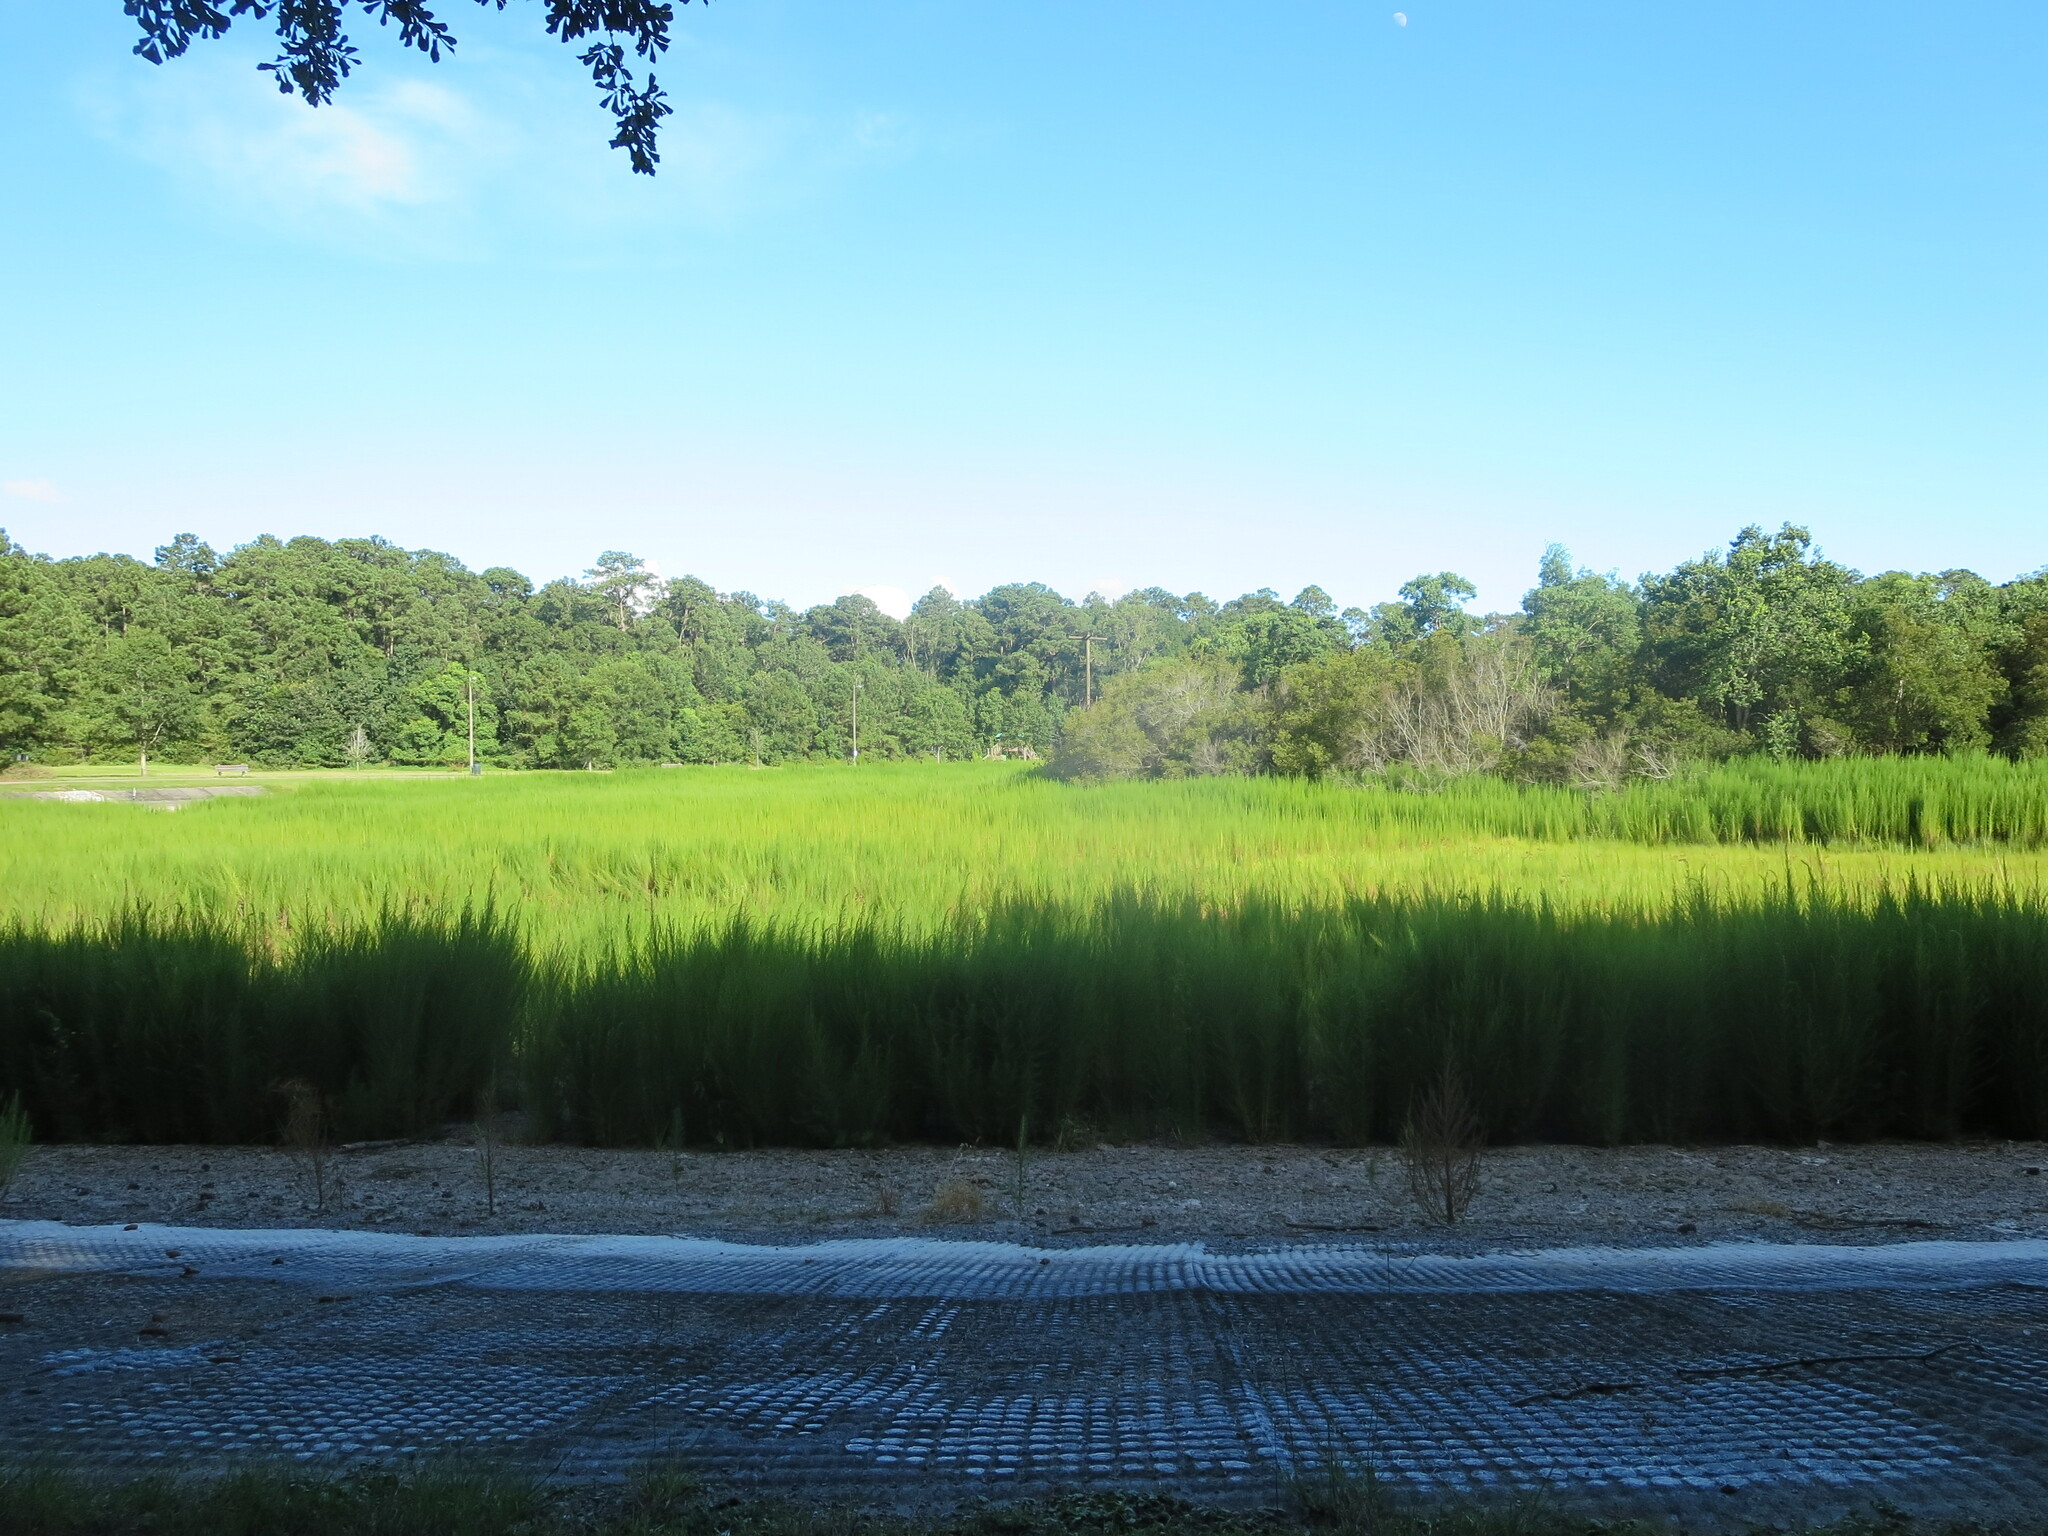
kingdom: Plantae
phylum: Tracheophyta
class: Magnoliopsida
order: Asterales
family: Asteraceae
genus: Eupatorium
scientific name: Eupatorium capillifolium
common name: Dog-fennel
